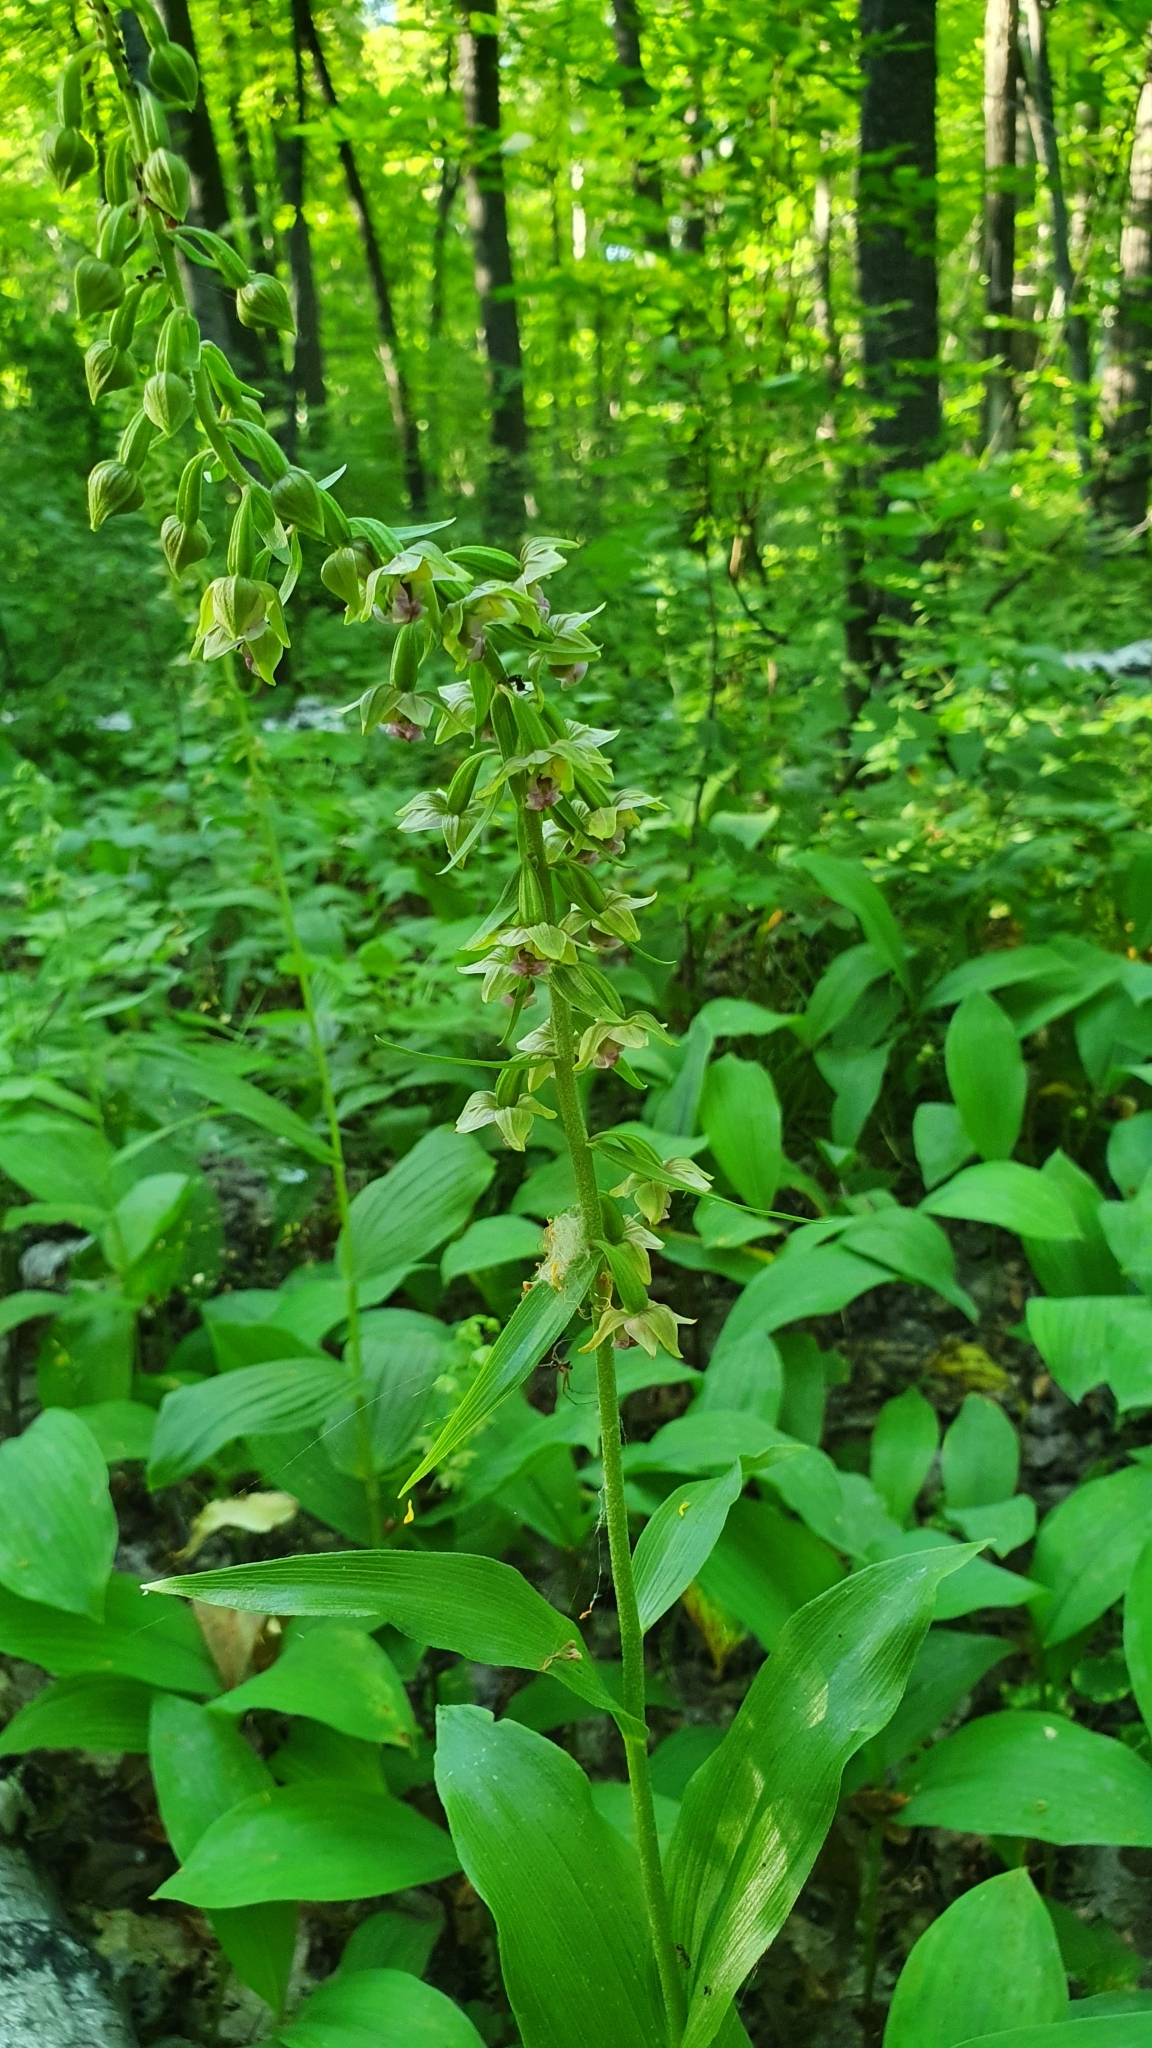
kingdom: Plantae
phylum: Tracheophyta
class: Liliopsida
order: Asparagales
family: Orchidaceae
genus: Epipactis
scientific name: Epipactis helleborine
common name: Broad-leaved helleborine
